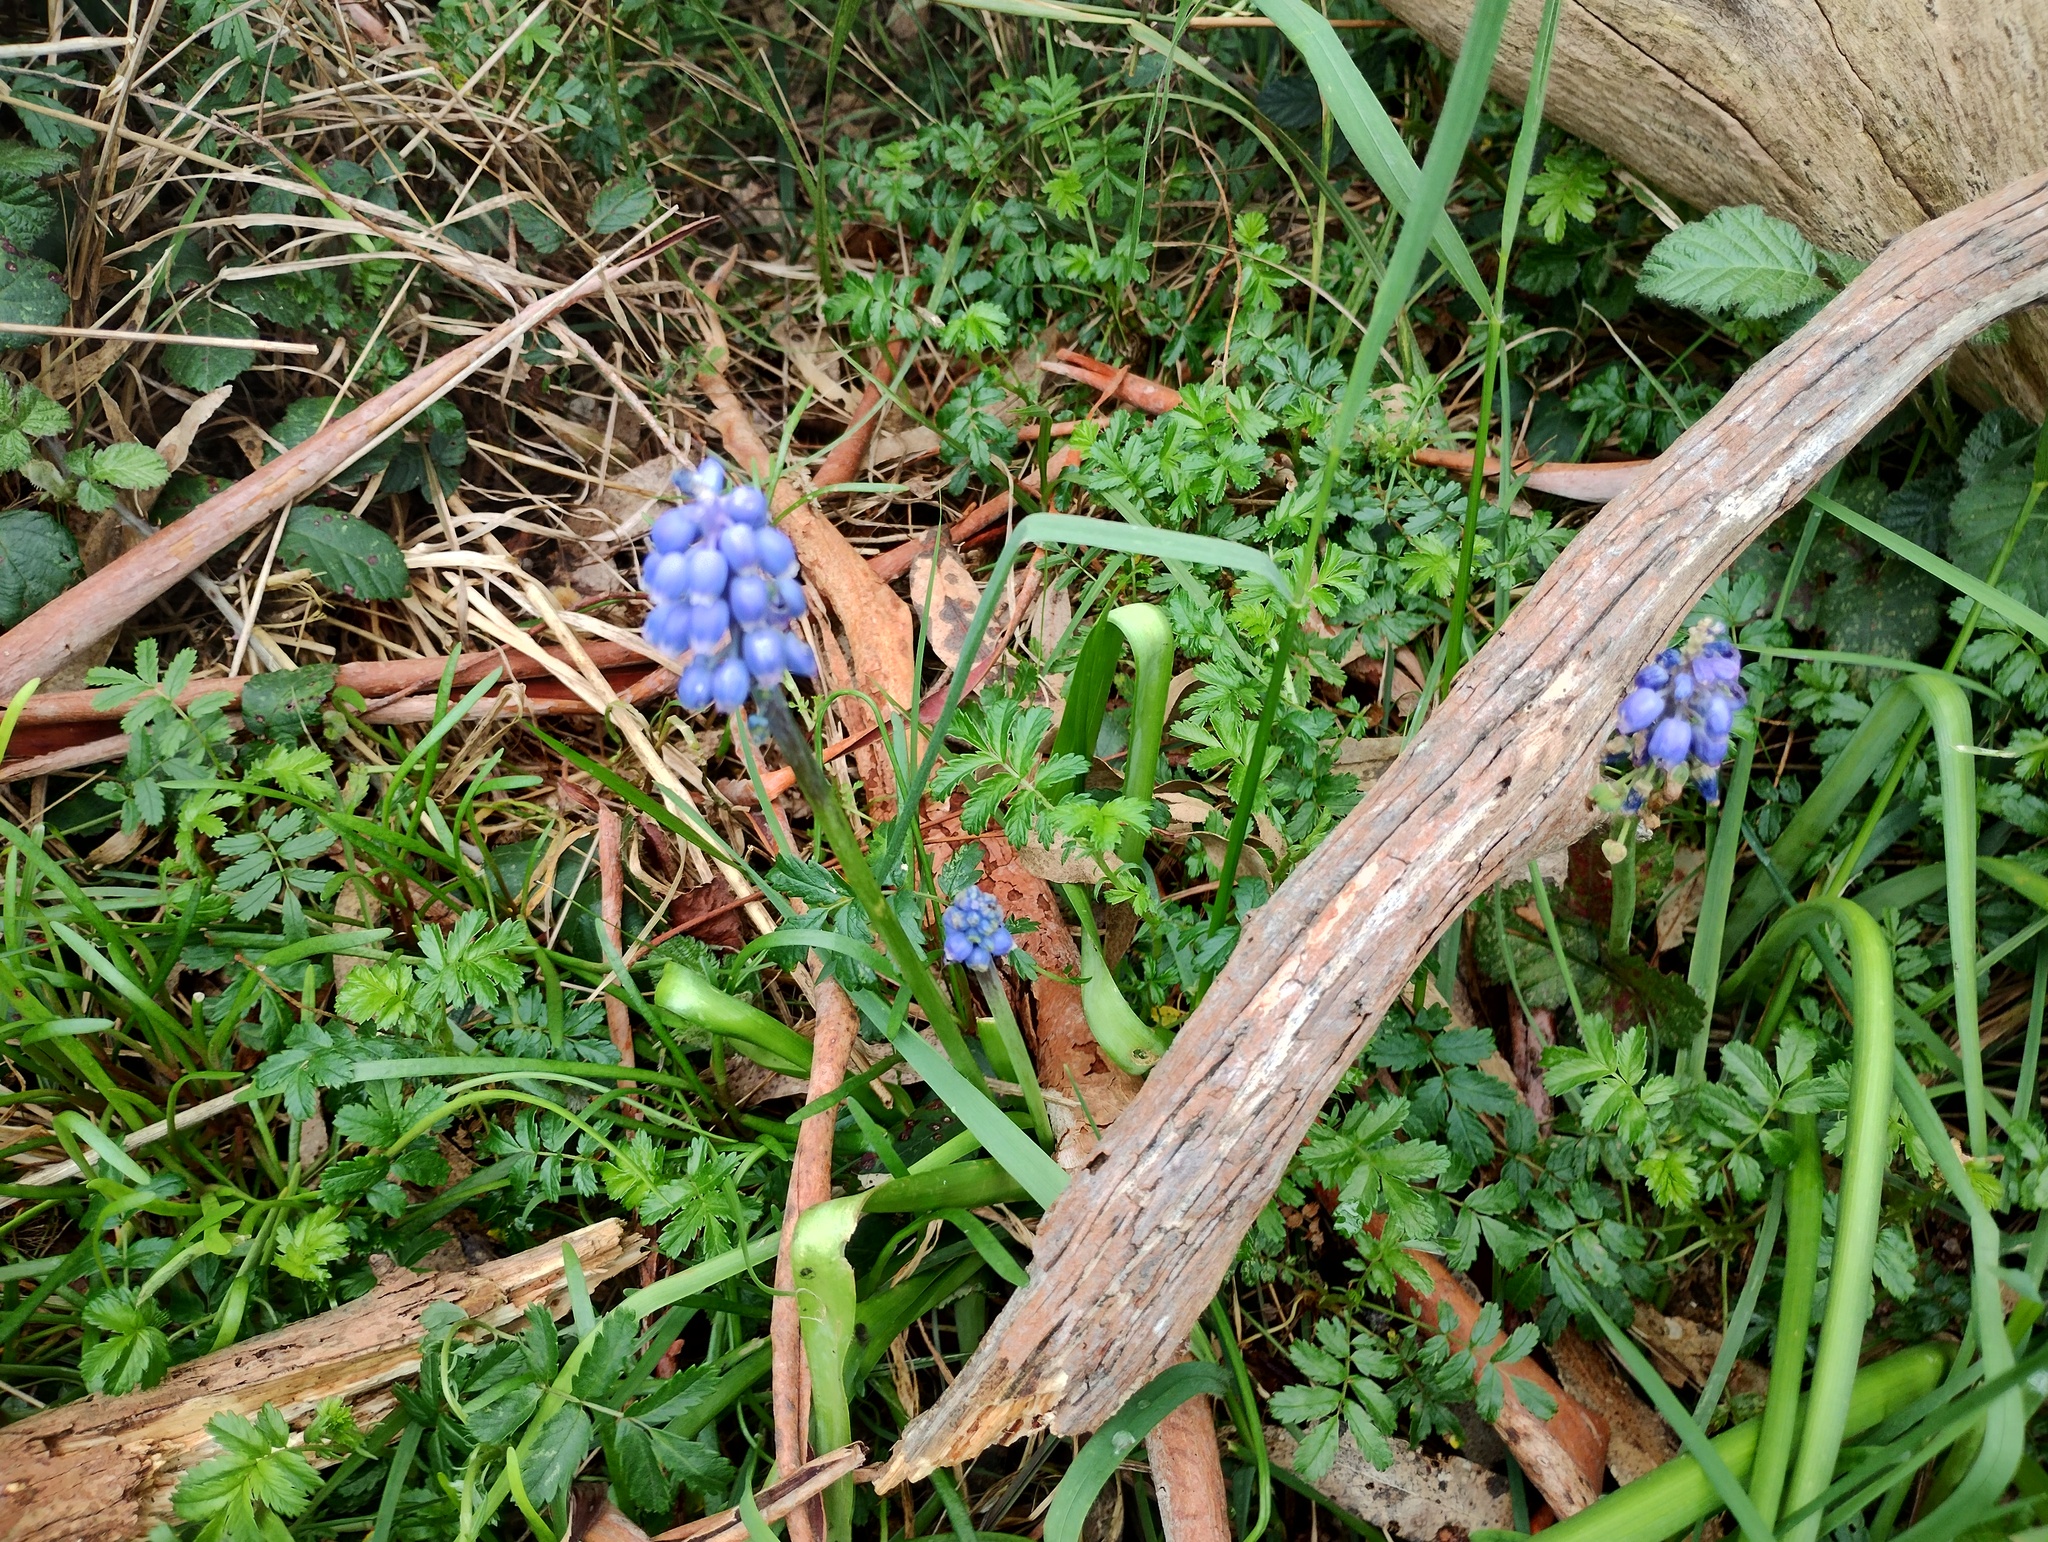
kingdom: Plantae
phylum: Tracheophyta
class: Liliopsida
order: Asparagales
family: Asparagaceae
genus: Muscari
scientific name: Muscari armeniacum
